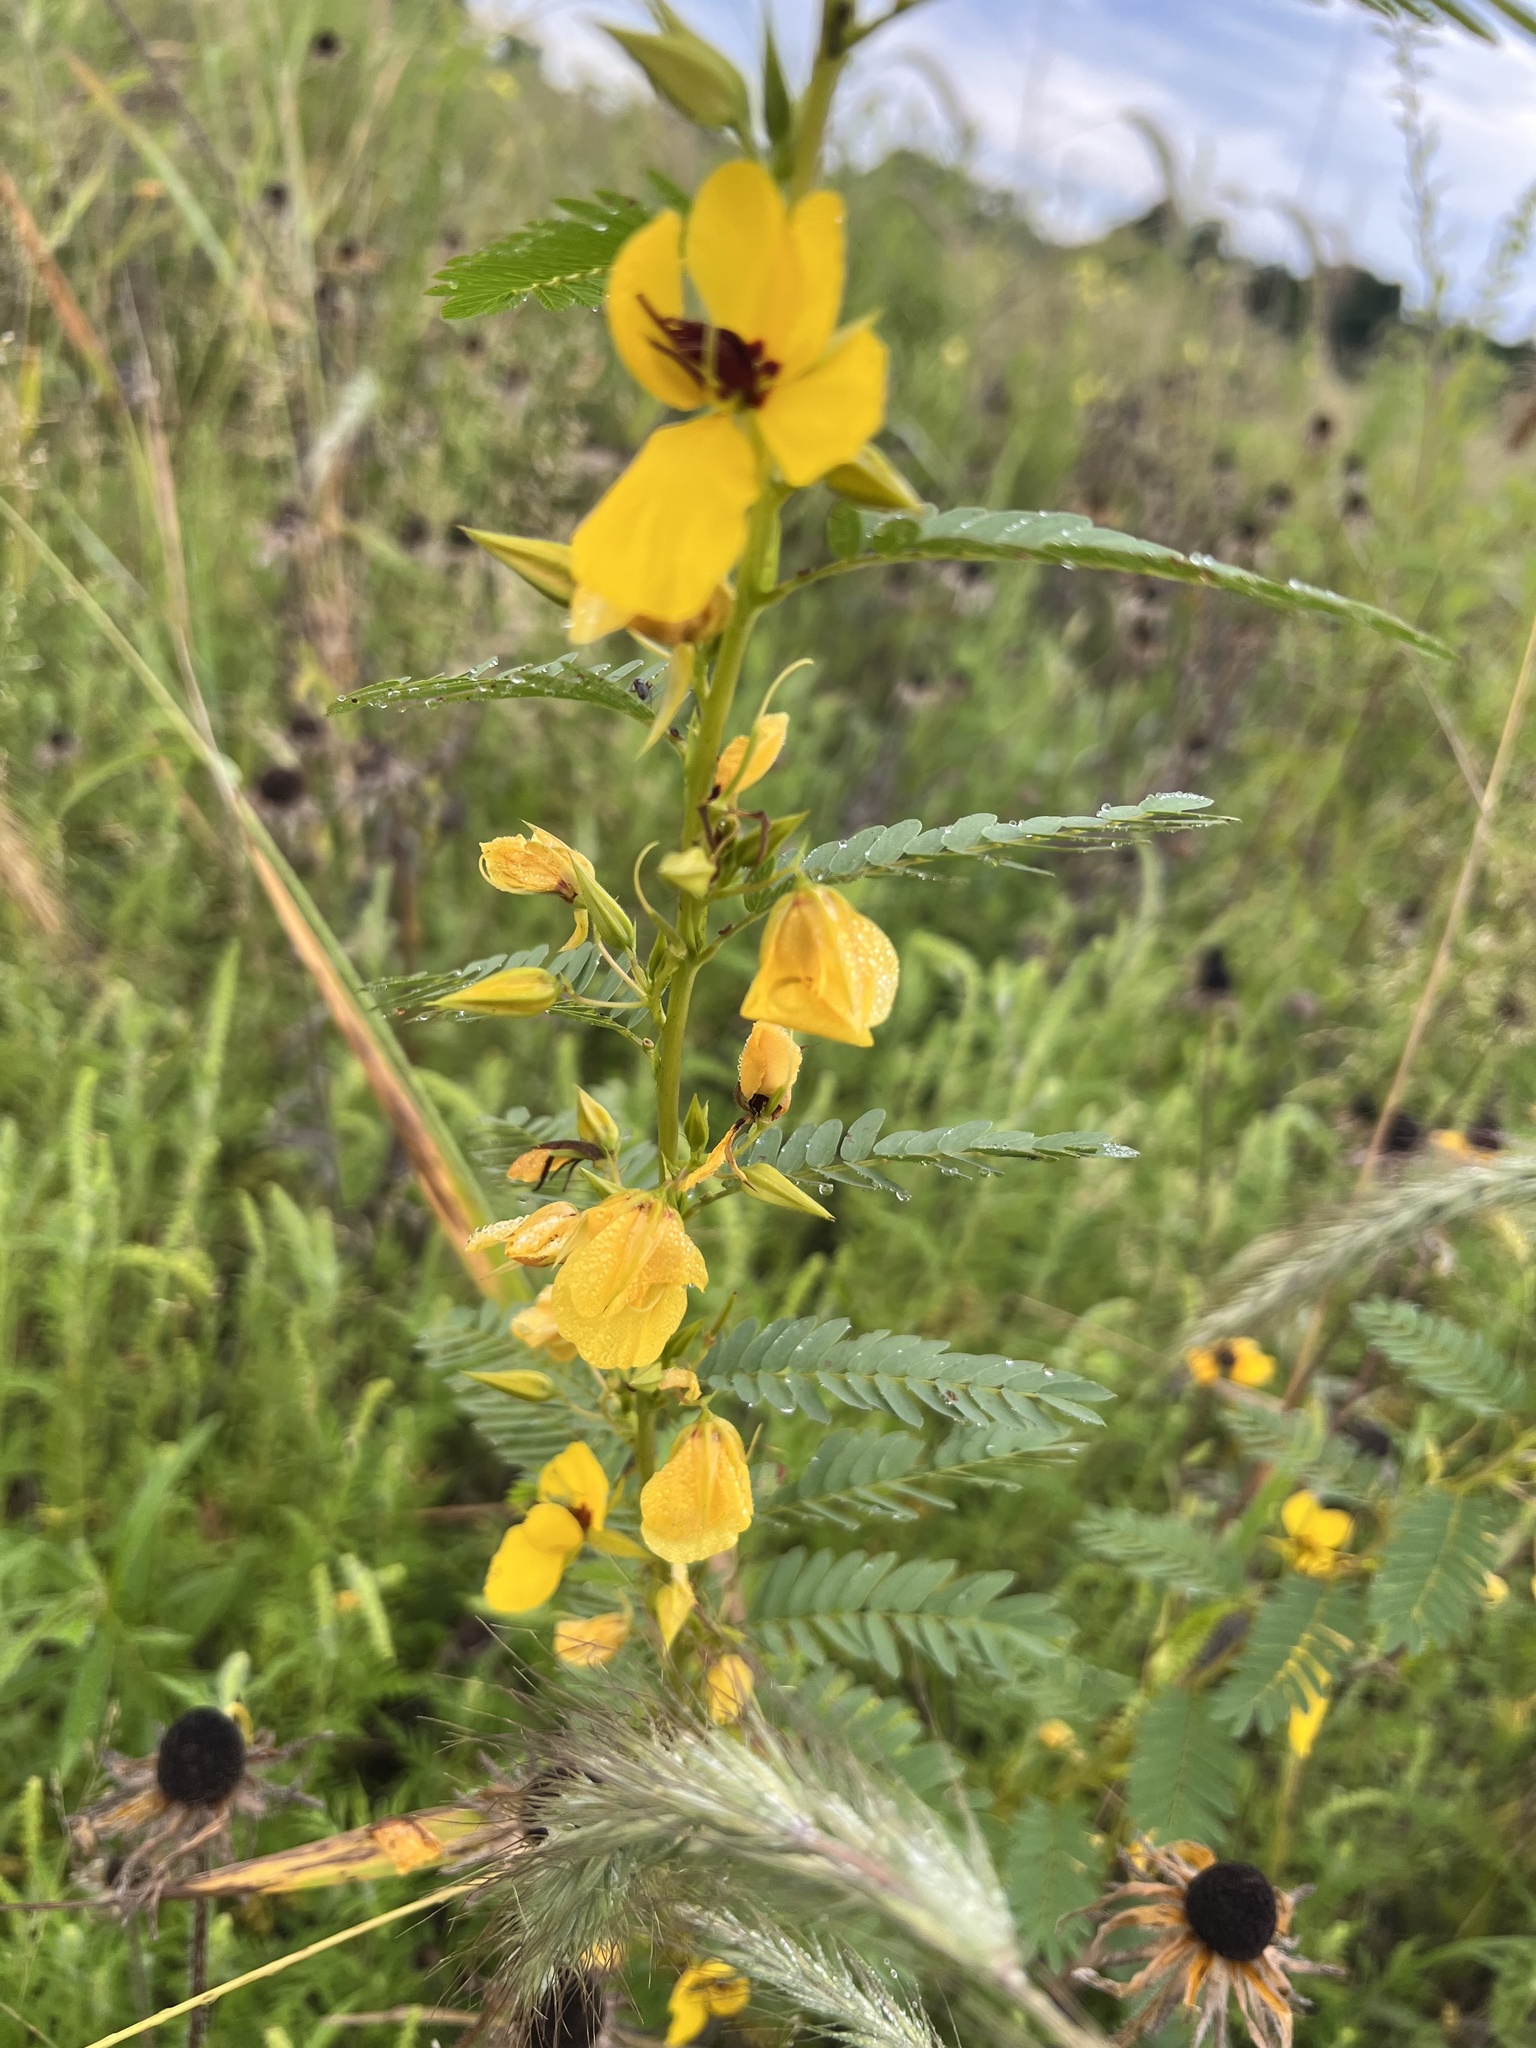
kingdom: Plantae
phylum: Tracheophyta
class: Magnoliopsida
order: Fabales
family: Fabaceae
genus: Chamaecrista
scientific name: Chamaecrista fasciculata
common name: Golden cassia
